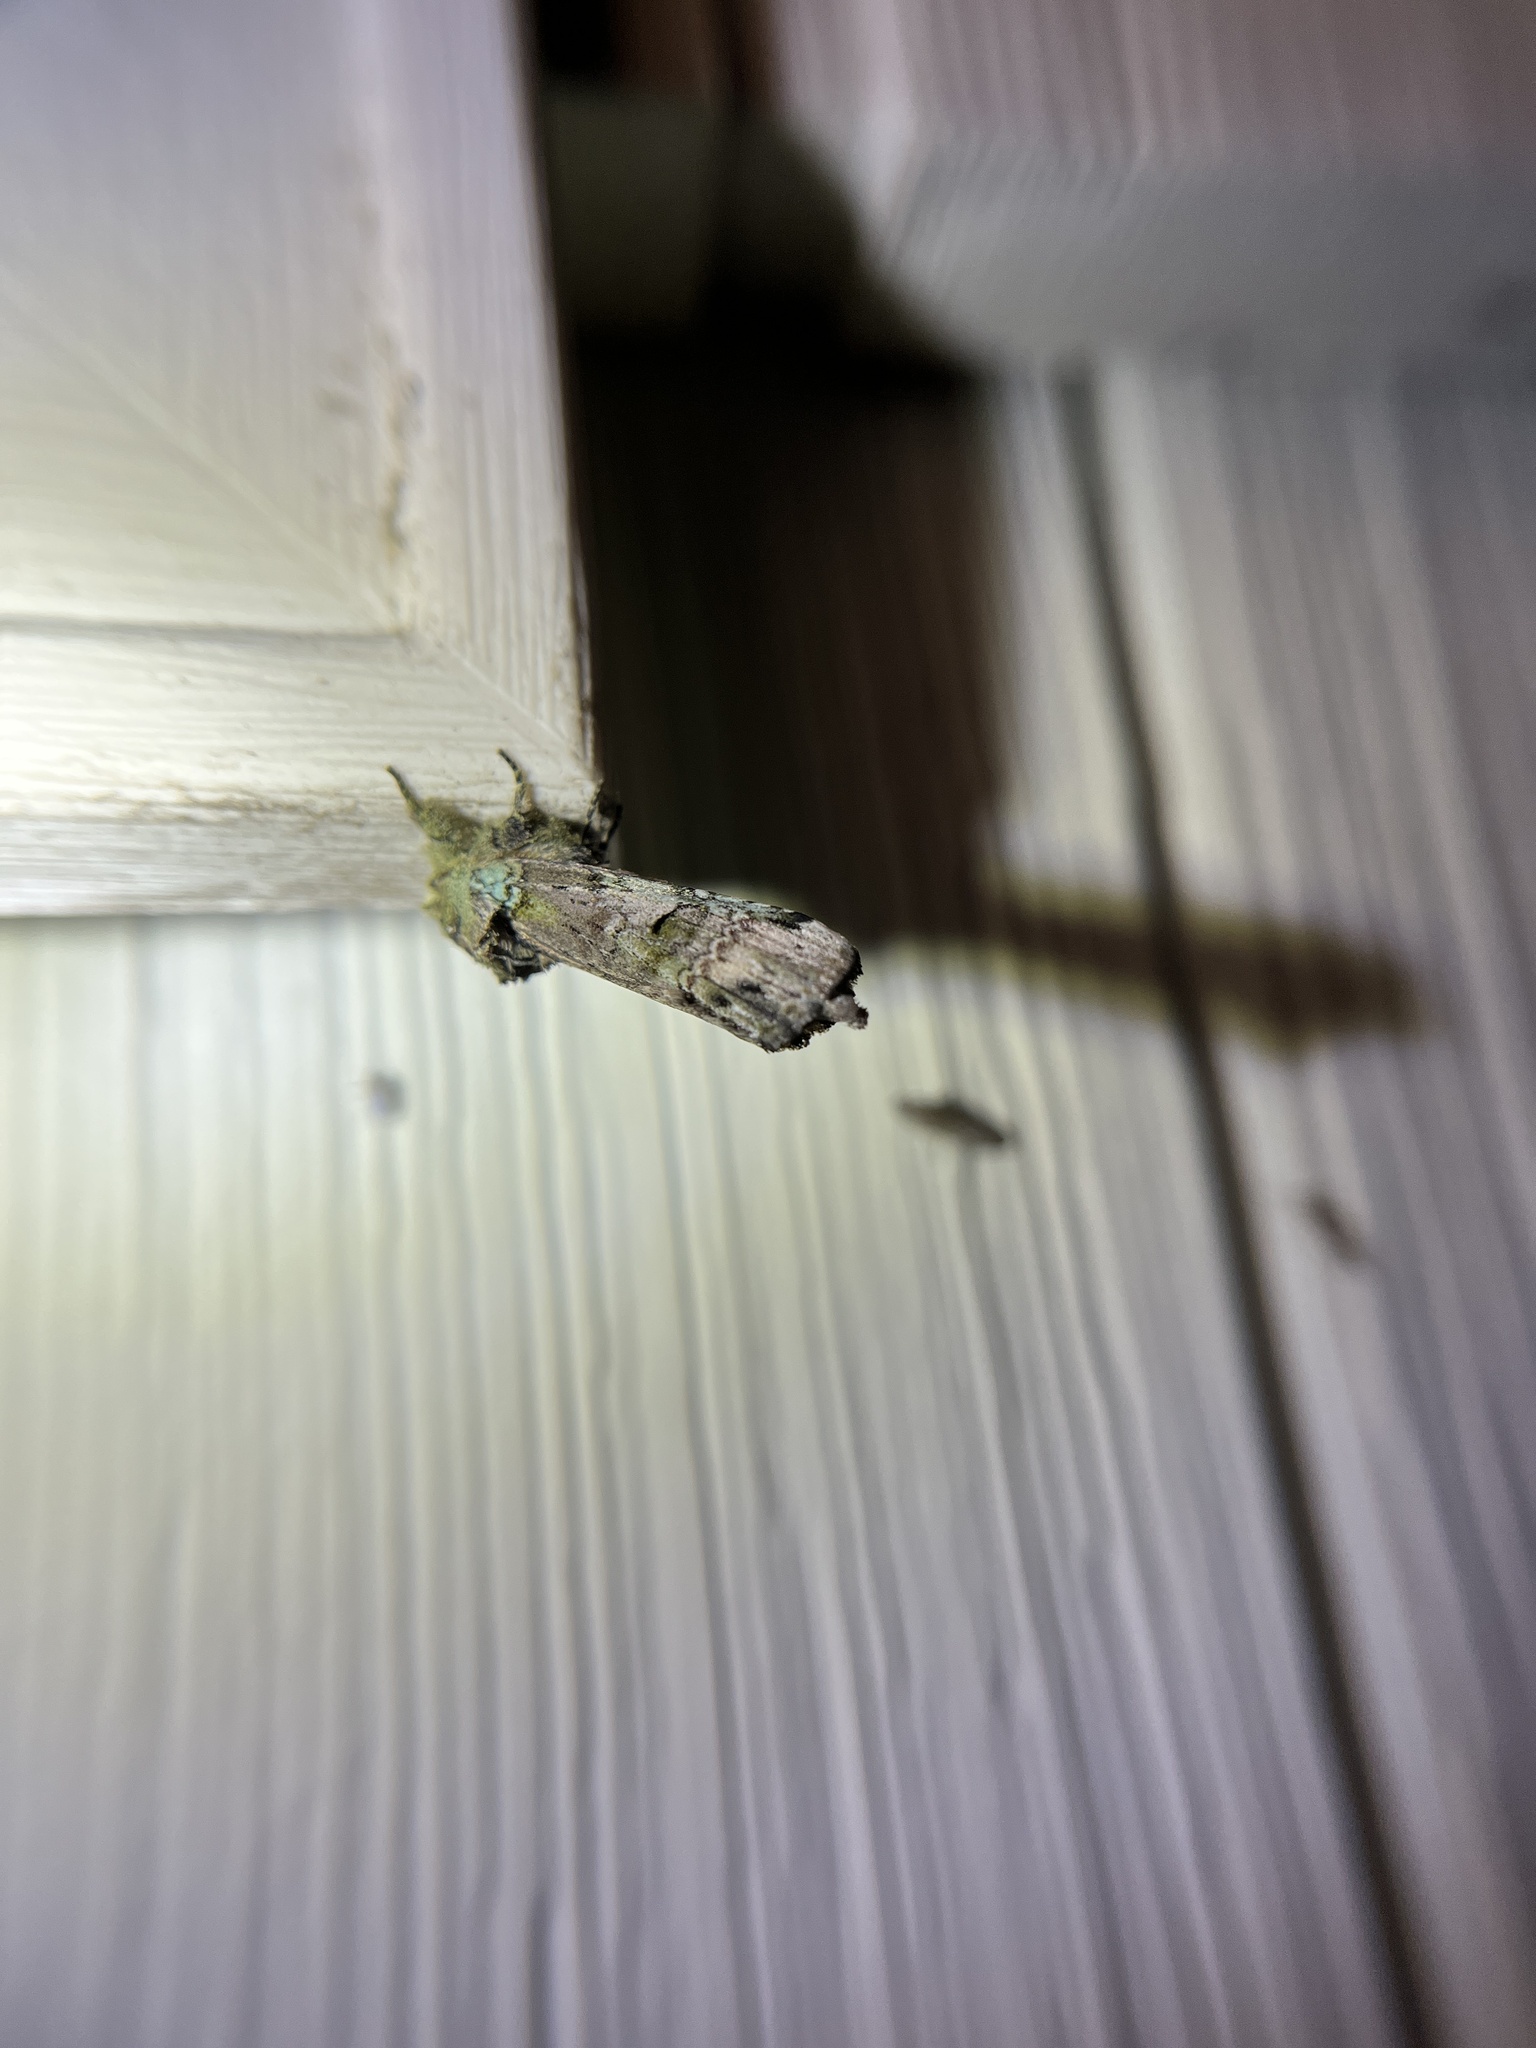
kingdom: Animalia
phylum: Arthropoda
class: Insecta
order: Lepidoptera
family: Notodontidae
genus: Schizura
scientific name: Schizura
